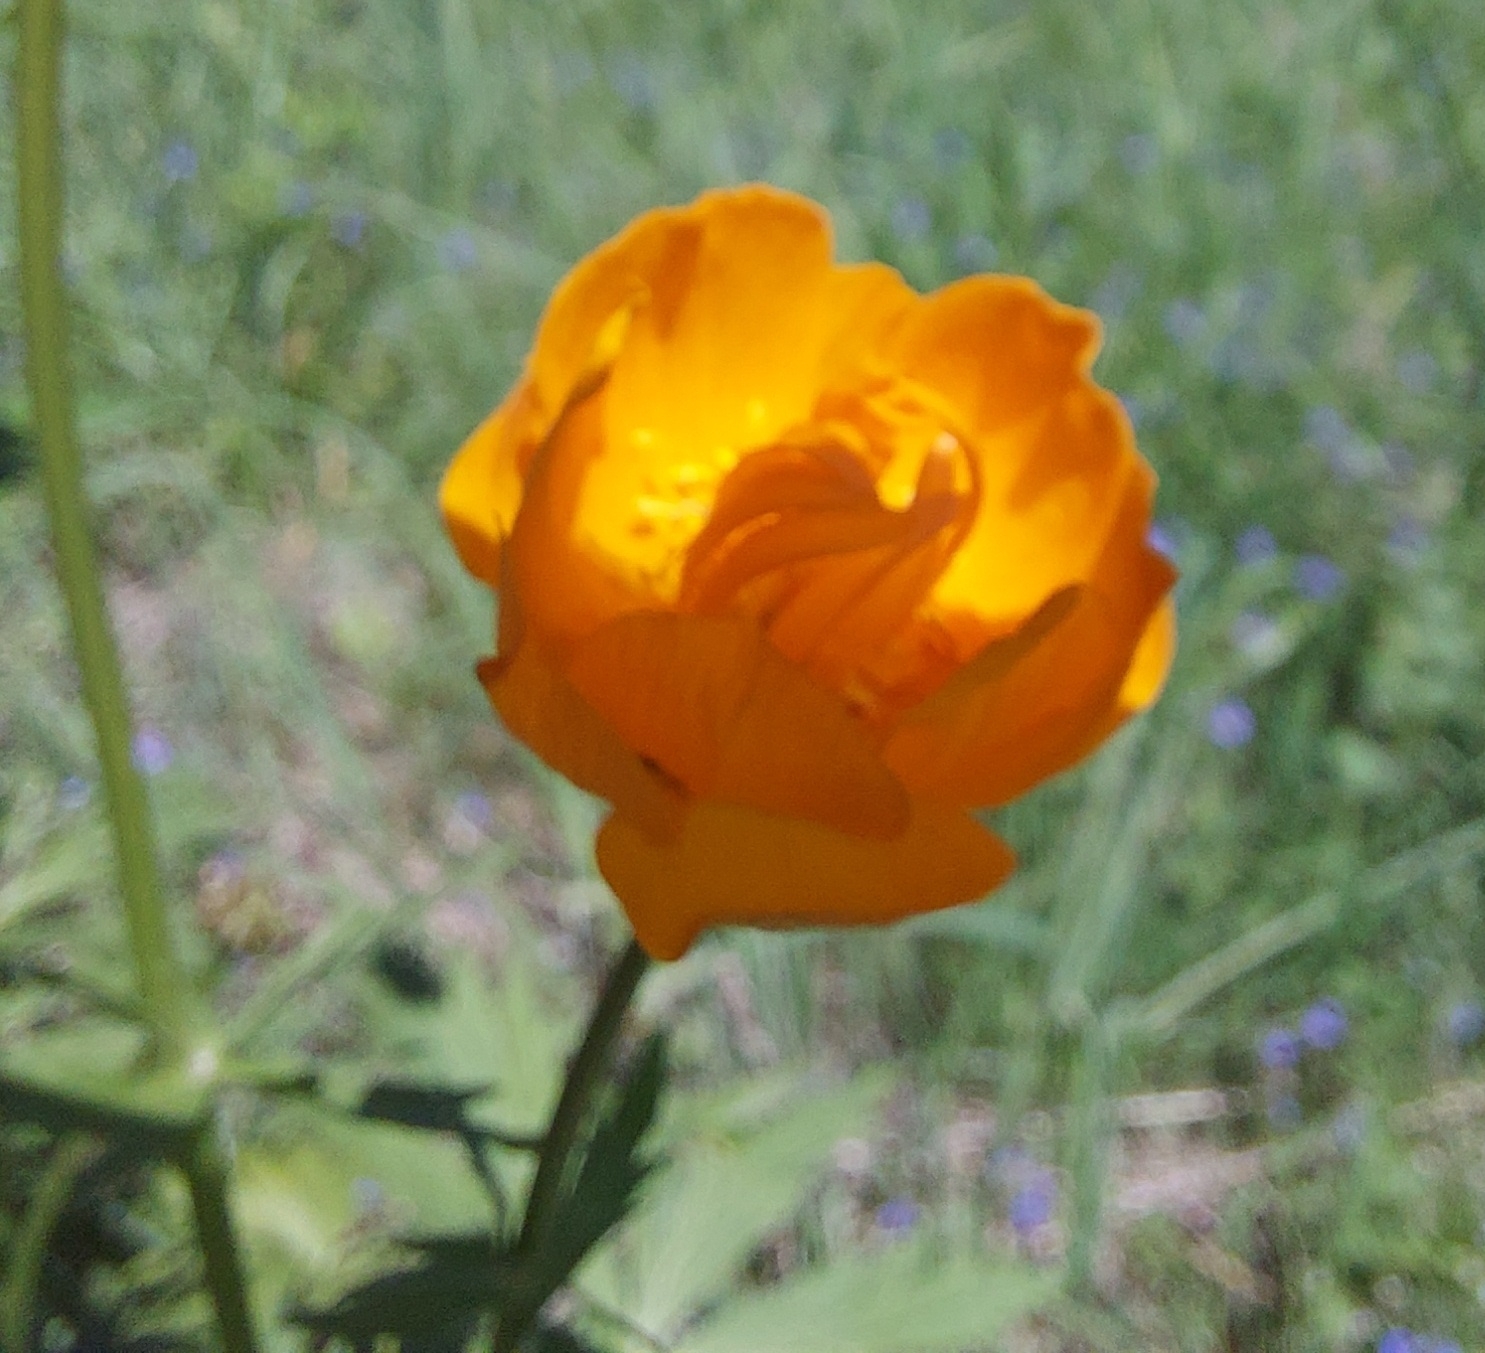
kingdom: Plantae
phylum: Tracheophyta
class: Magnoliopsida
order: Ranunculales
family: Ranunculaceae
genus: Trollius
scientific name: Trollius asiaticus
